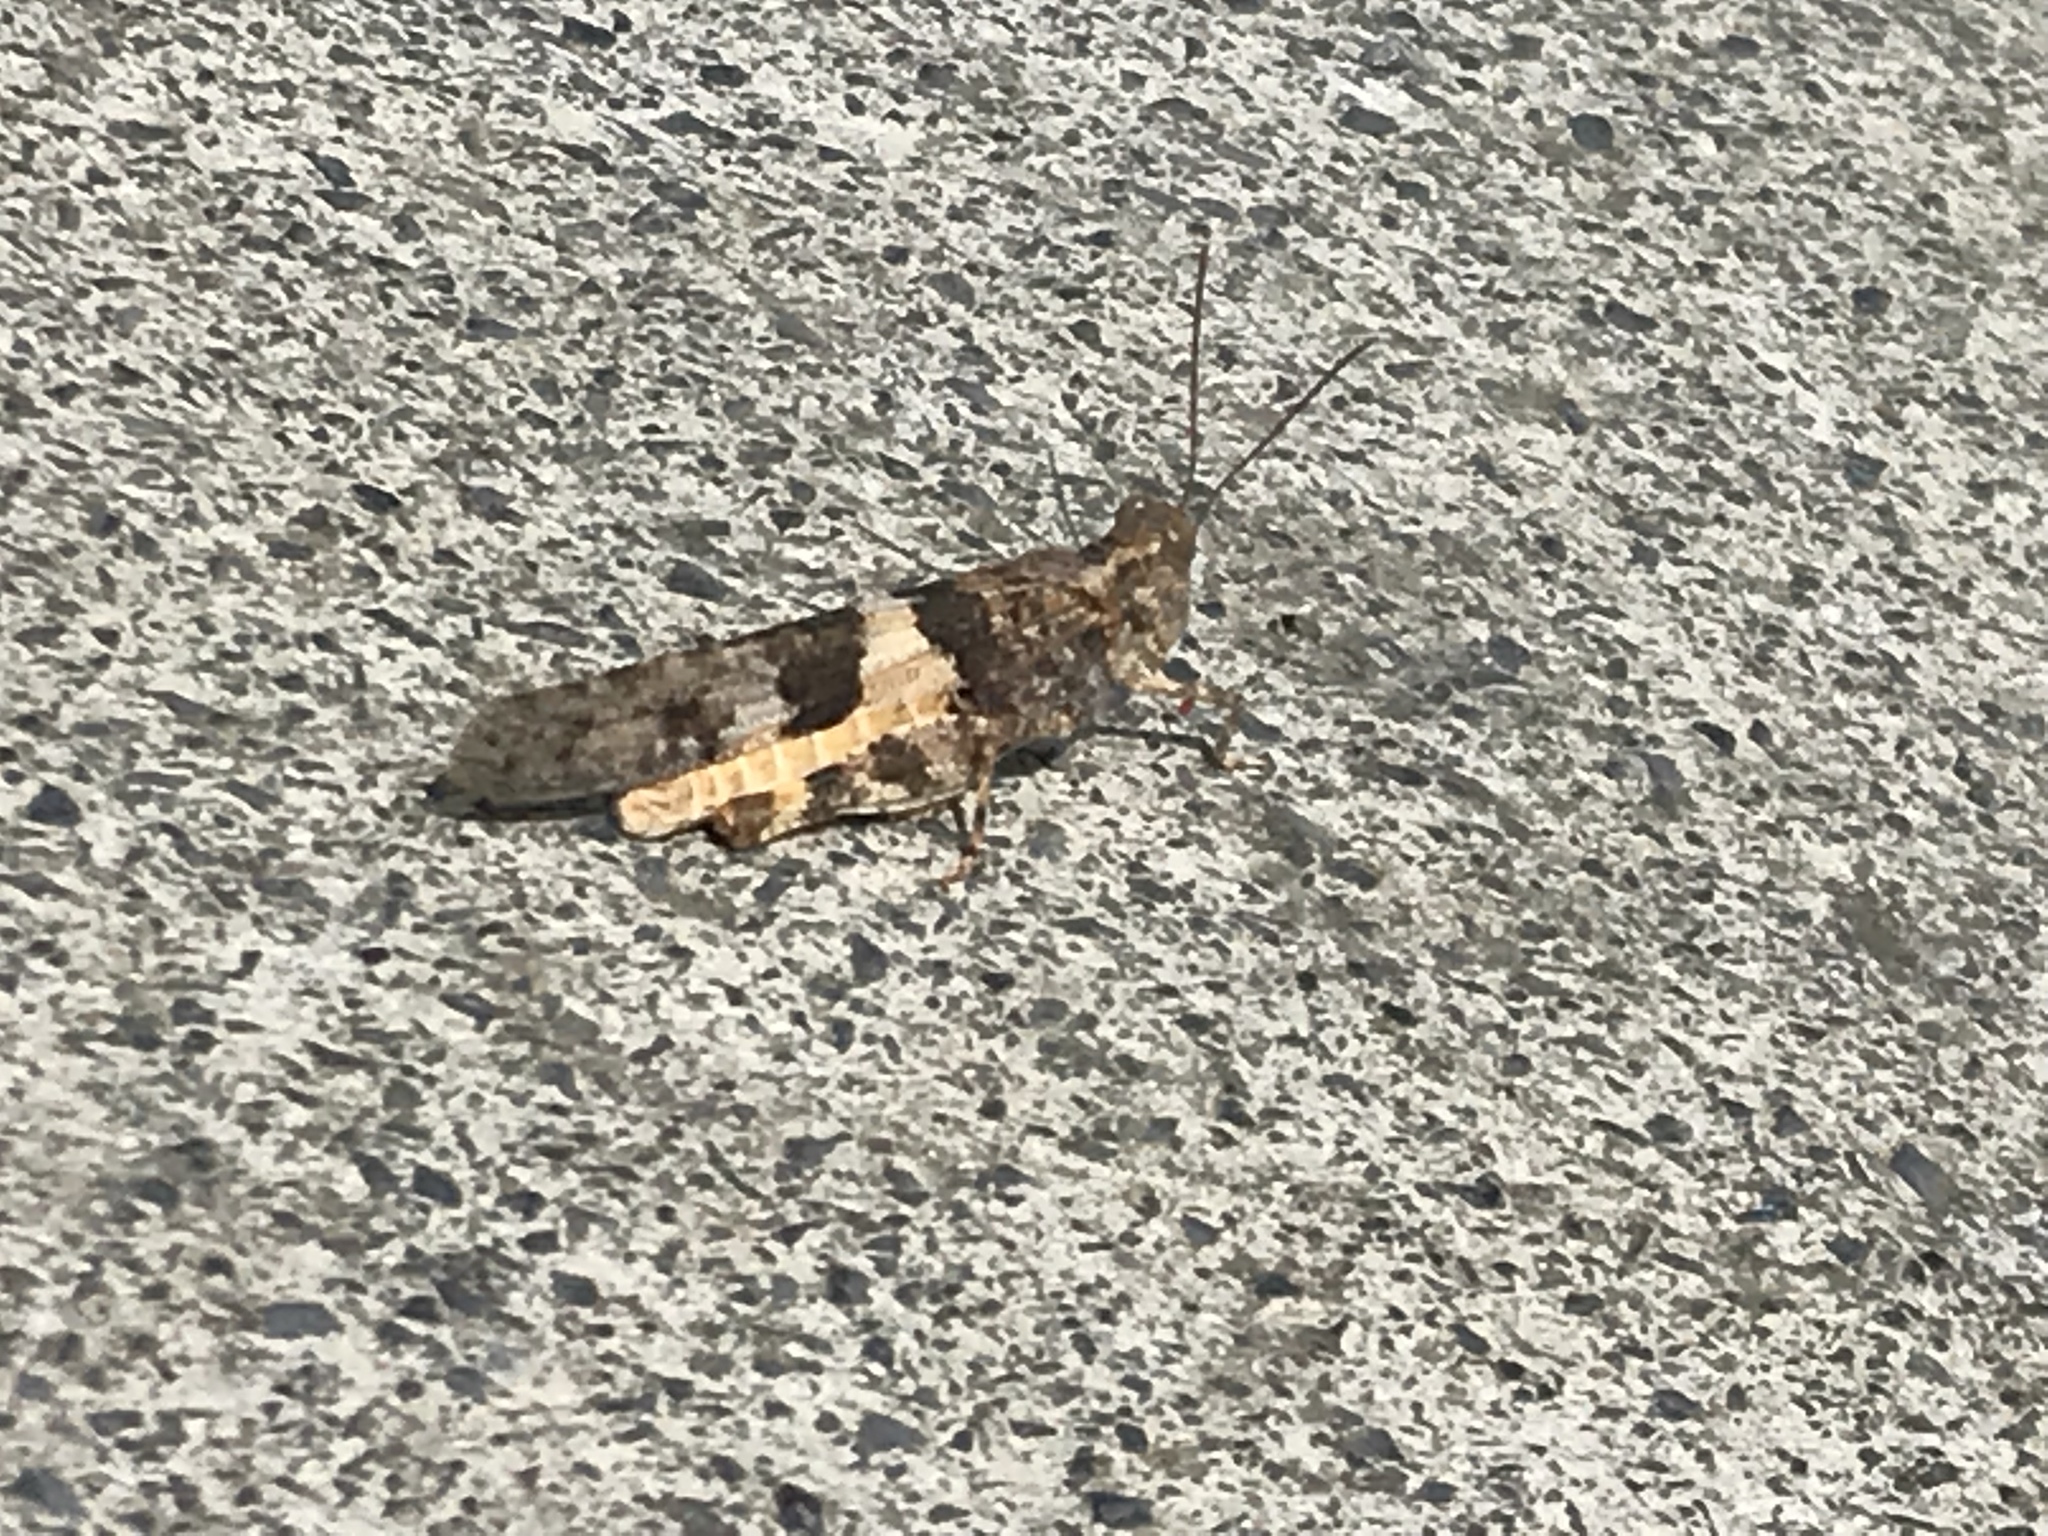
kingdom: Animalia
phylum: Arthropoda
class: Insecta
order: Orthoptera
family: Acrididae
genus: Trimerotropis
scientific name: Trimerotropis pallidipennis
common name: Pallid-winged grasshopper
